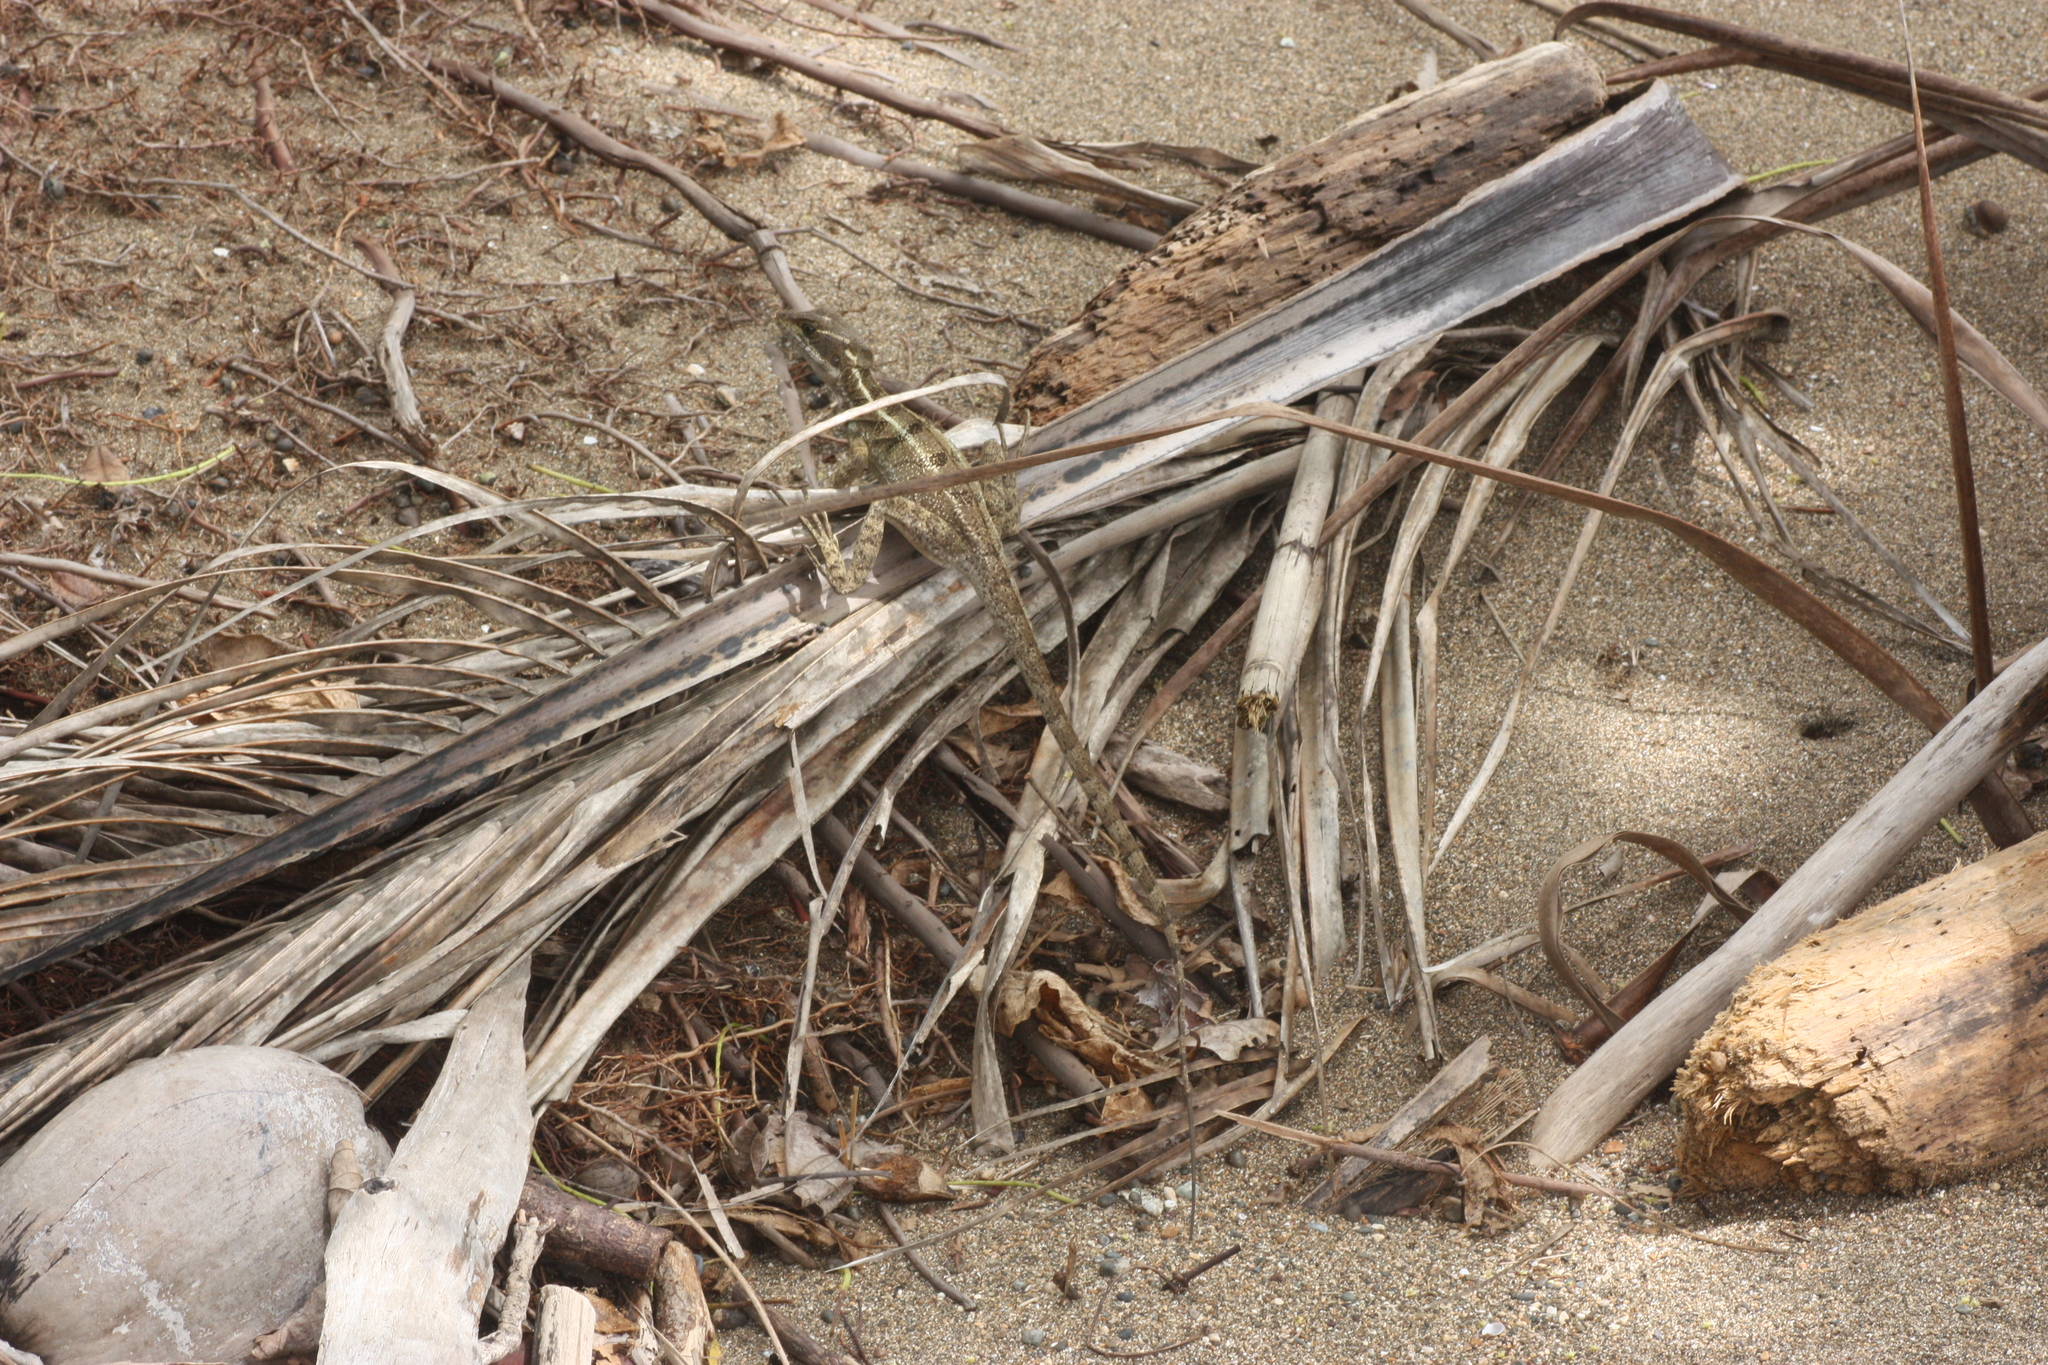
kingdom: Animalia
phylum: Chordata
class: Squamata
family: Corytophanidae
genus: Basiliscus
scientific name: Basiliscus basiliscus
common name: Common basilisk
